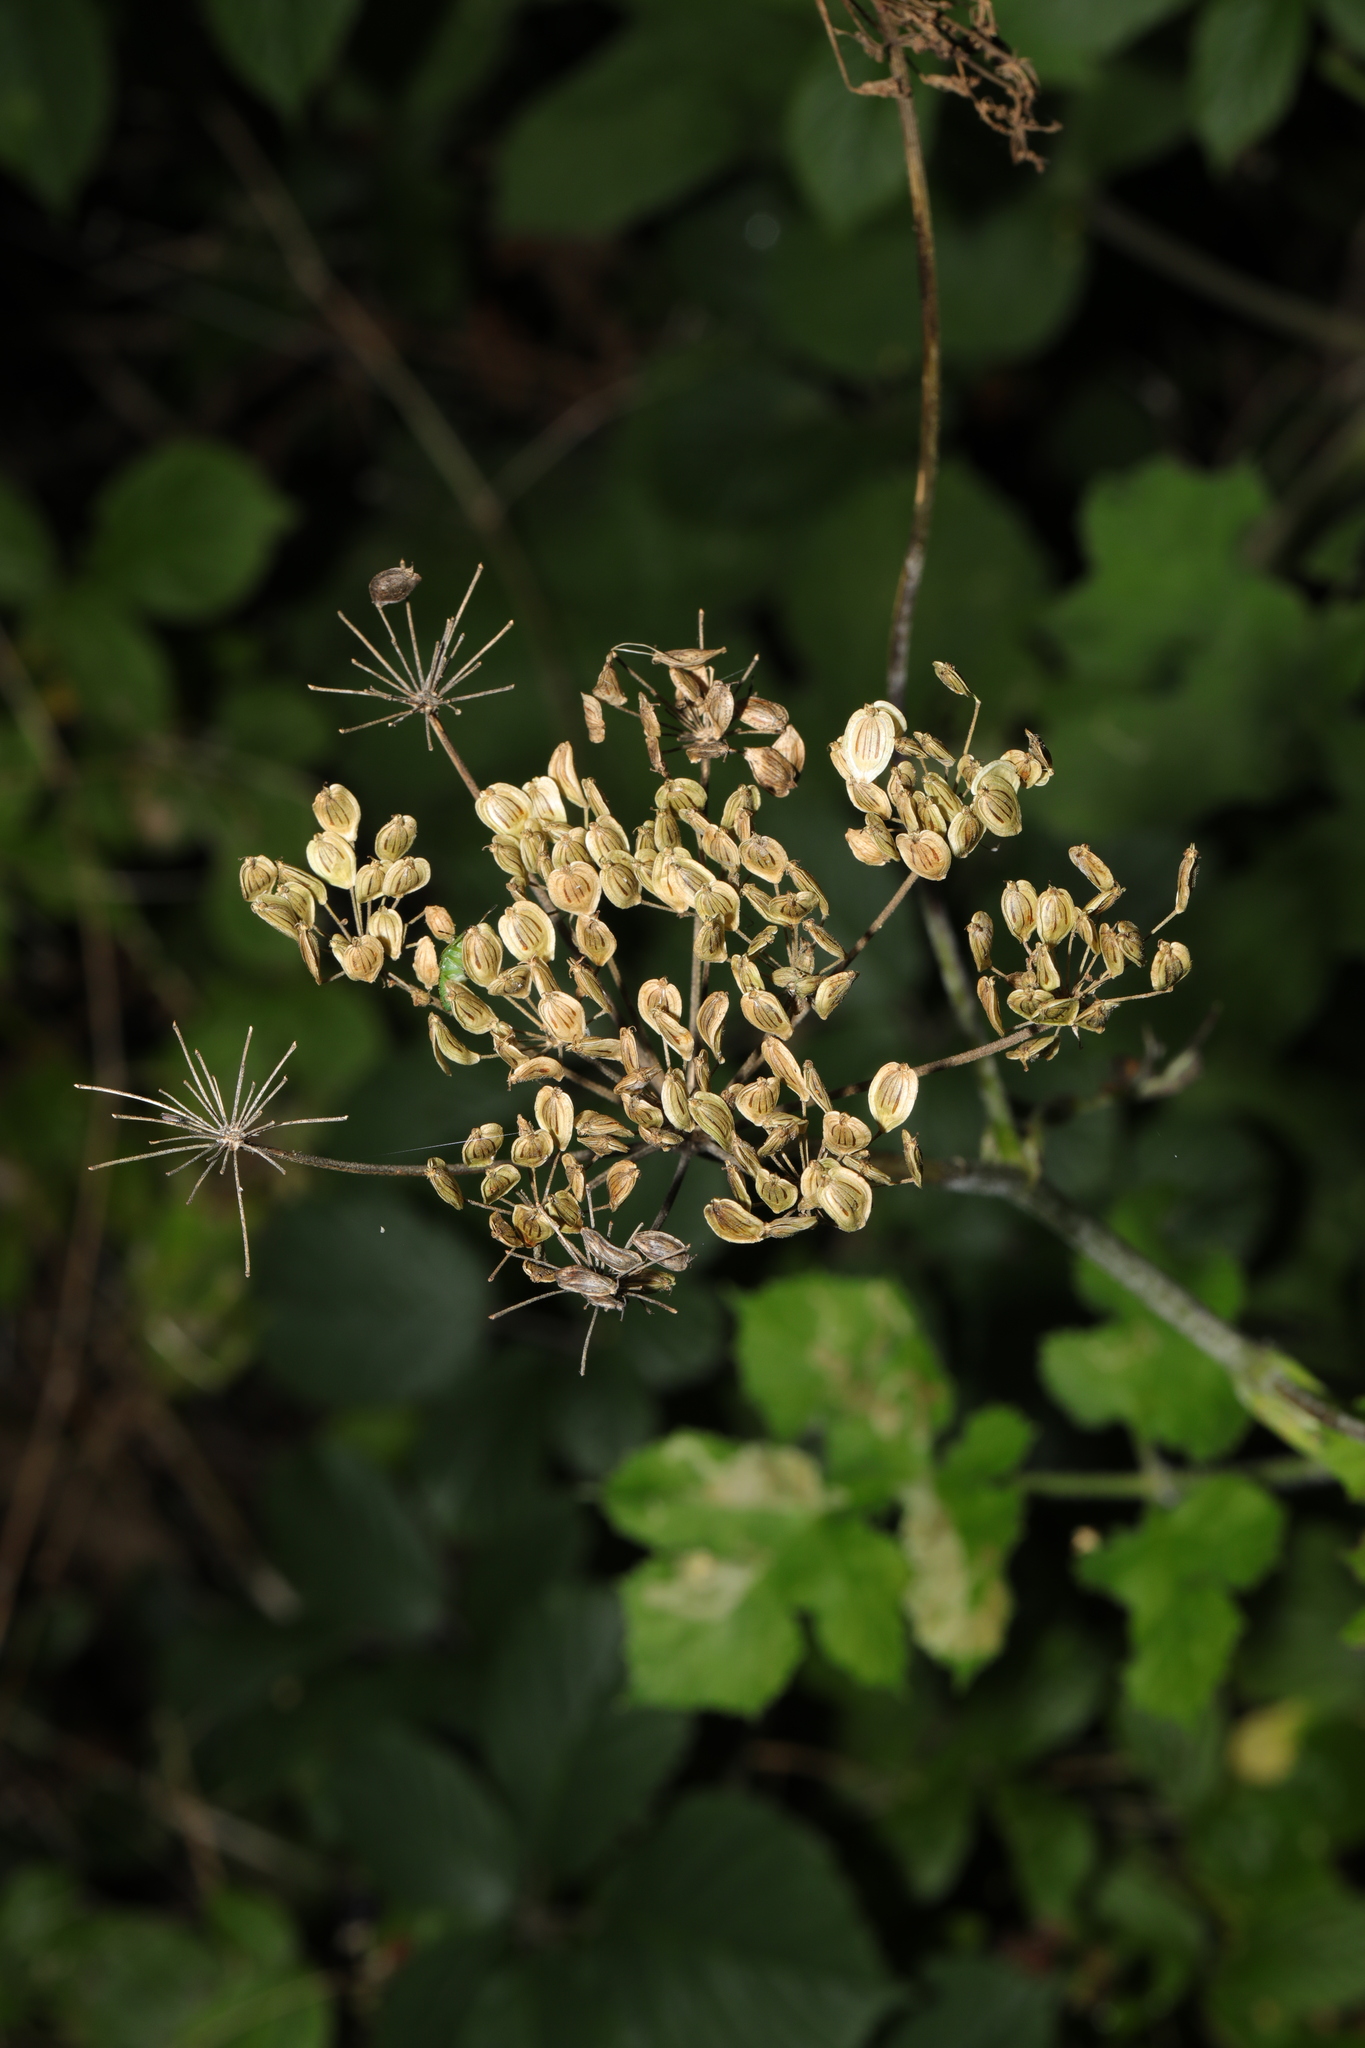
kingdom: Plantae
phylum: Tracheophyta
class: Magnoliopsida
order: Apiales
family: Apiaceae
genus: Heracleum
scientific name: Heracleum sphondylium
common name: Hogweed
